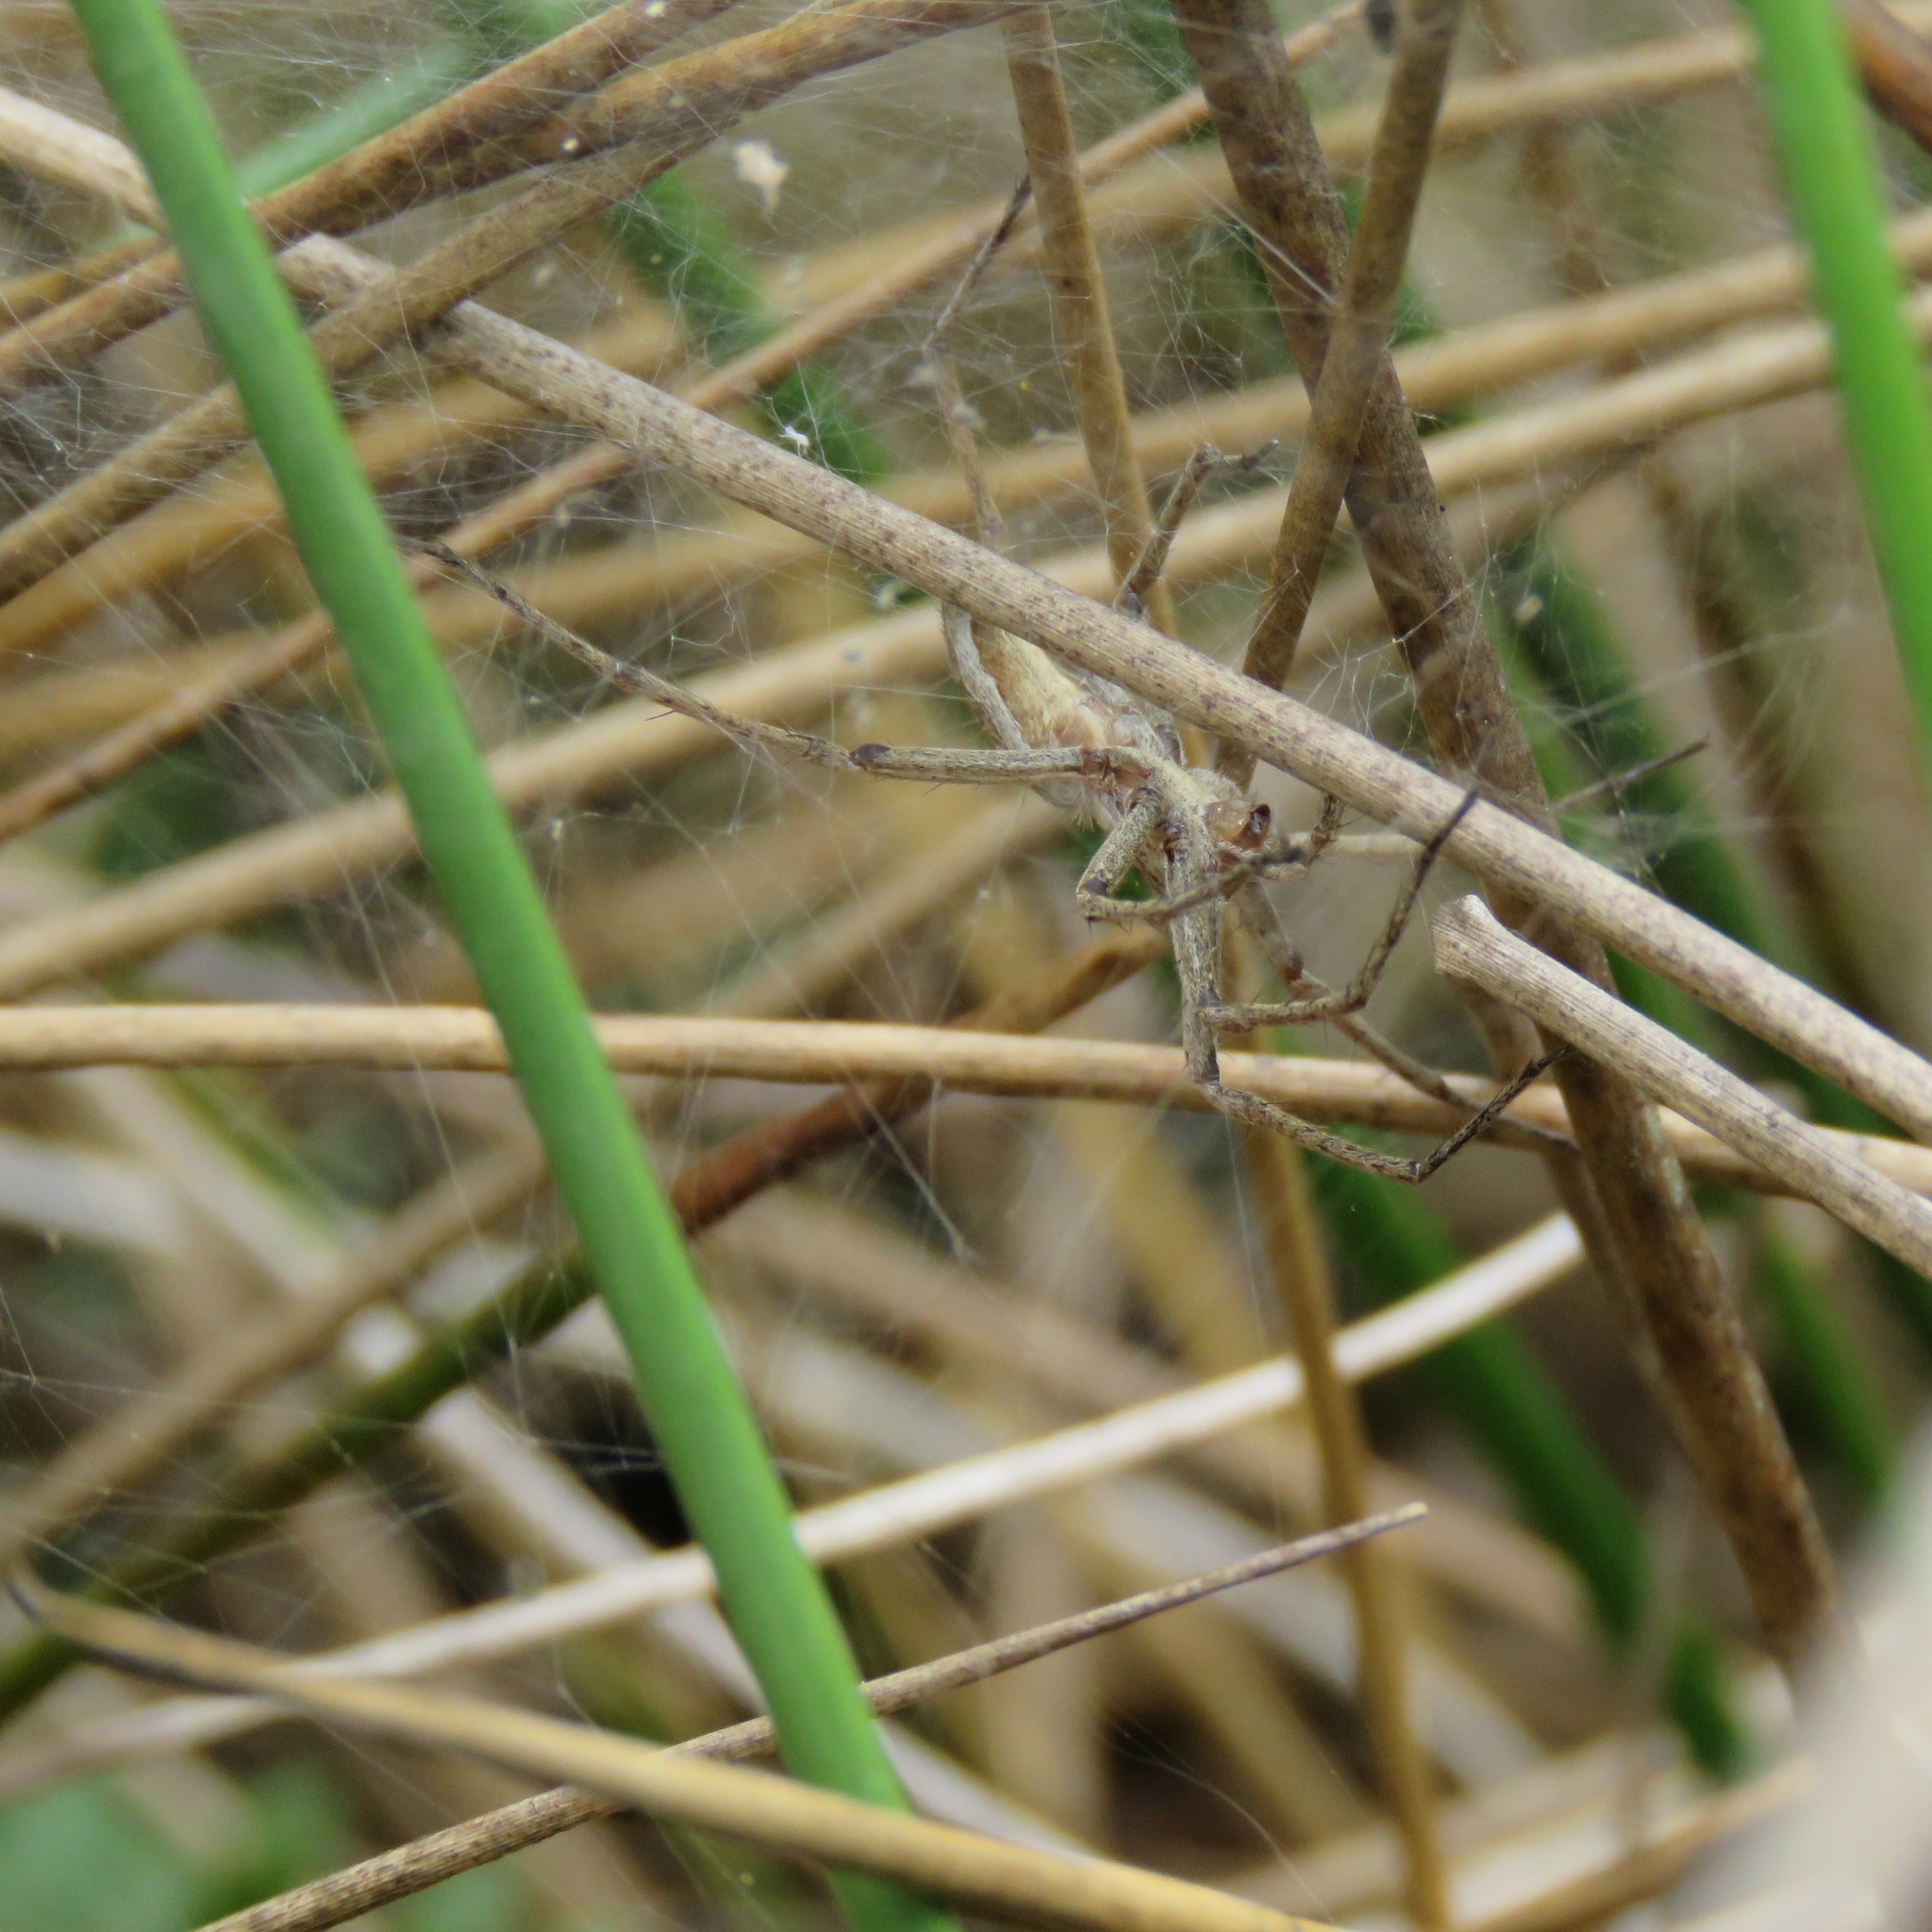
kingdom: Animalia
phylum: Arthropoda
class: Arachnida
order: Araneae
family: Pisauridae
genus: Pisaura
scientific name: Pisaura mirabilis
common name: Tent spider
